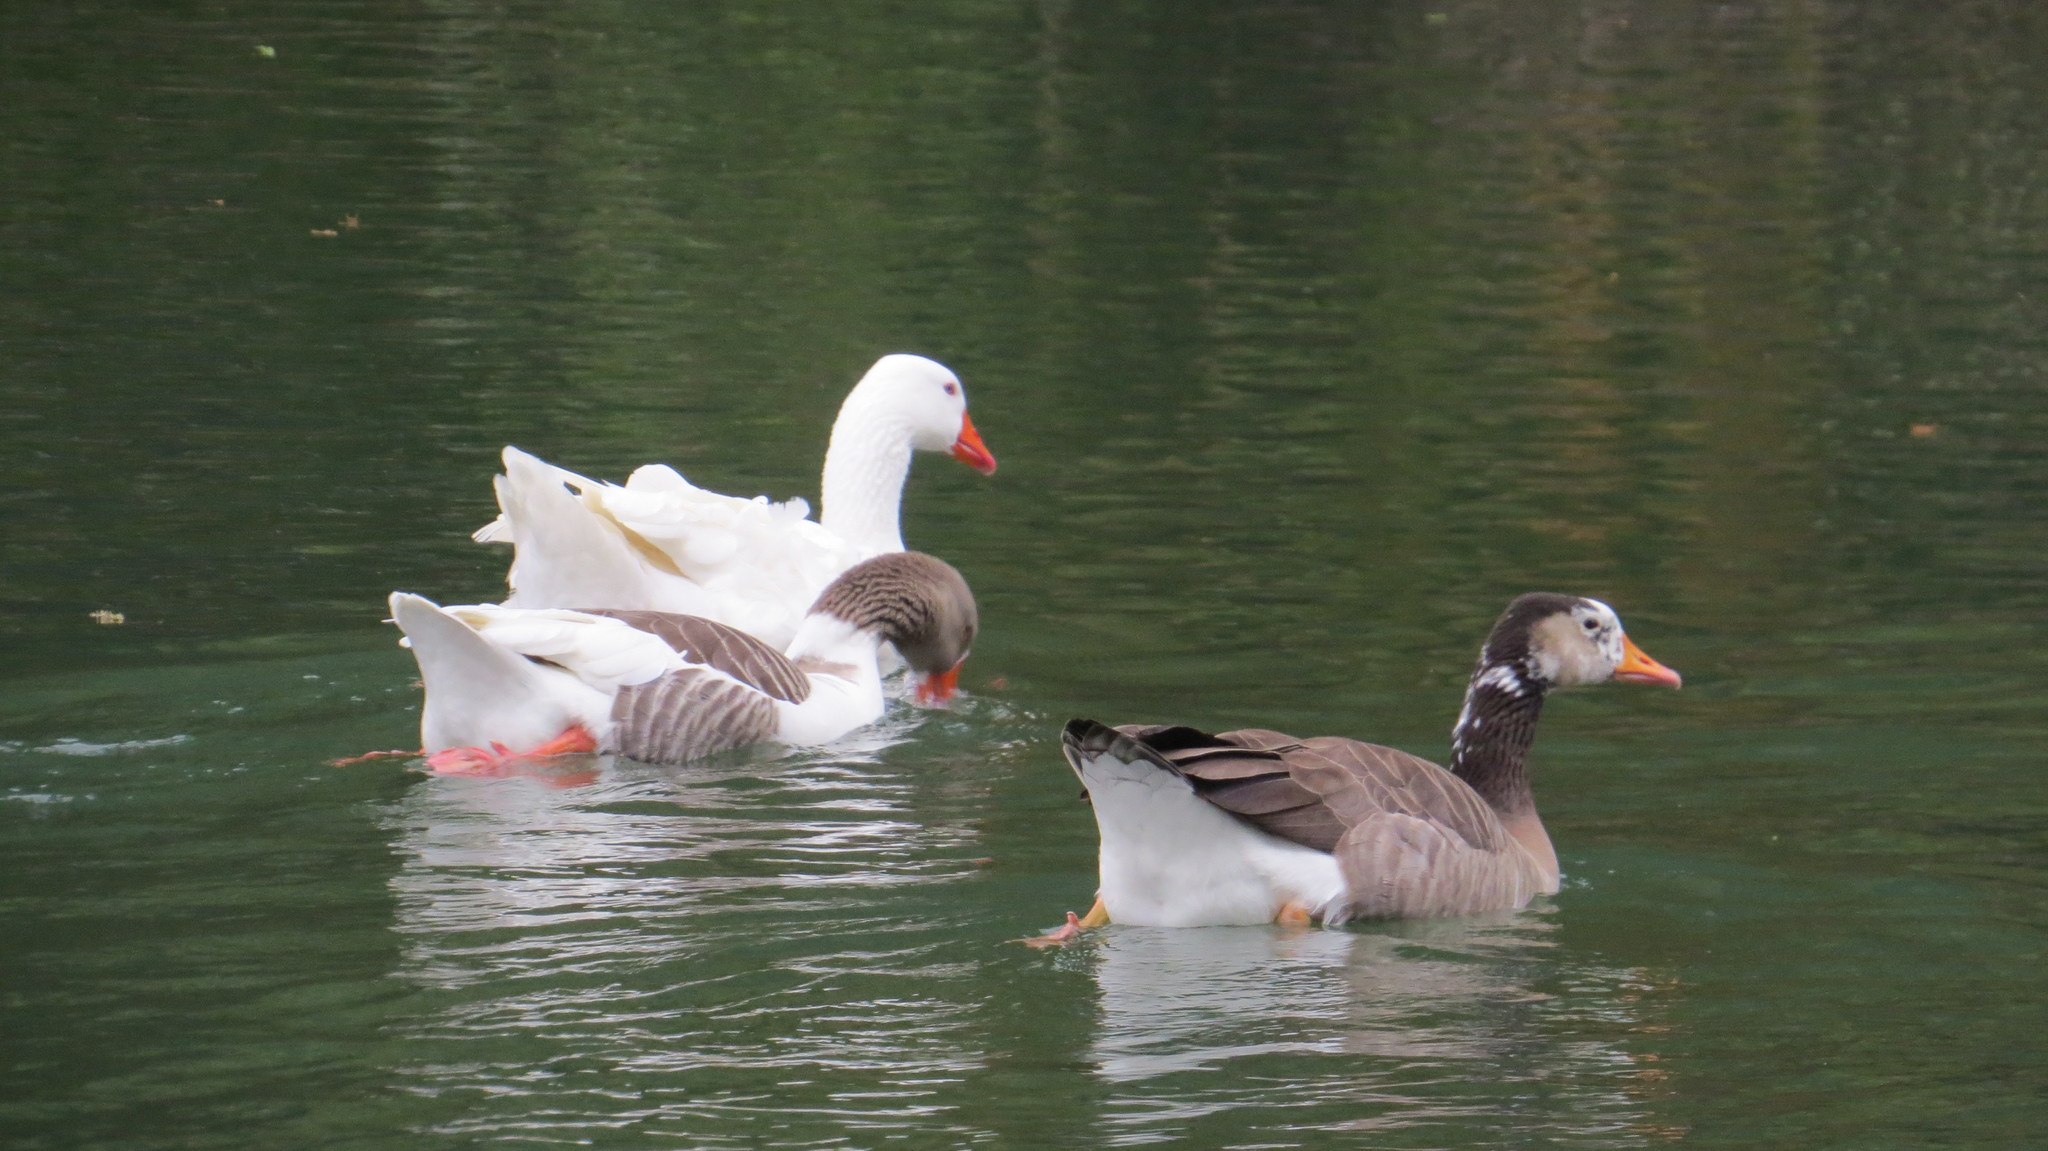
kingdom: Animalia
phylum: Chordata
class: Aves
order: Anseriformes
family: Anatidae
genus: Anser
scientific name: Anser anser
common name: Greylag goose
